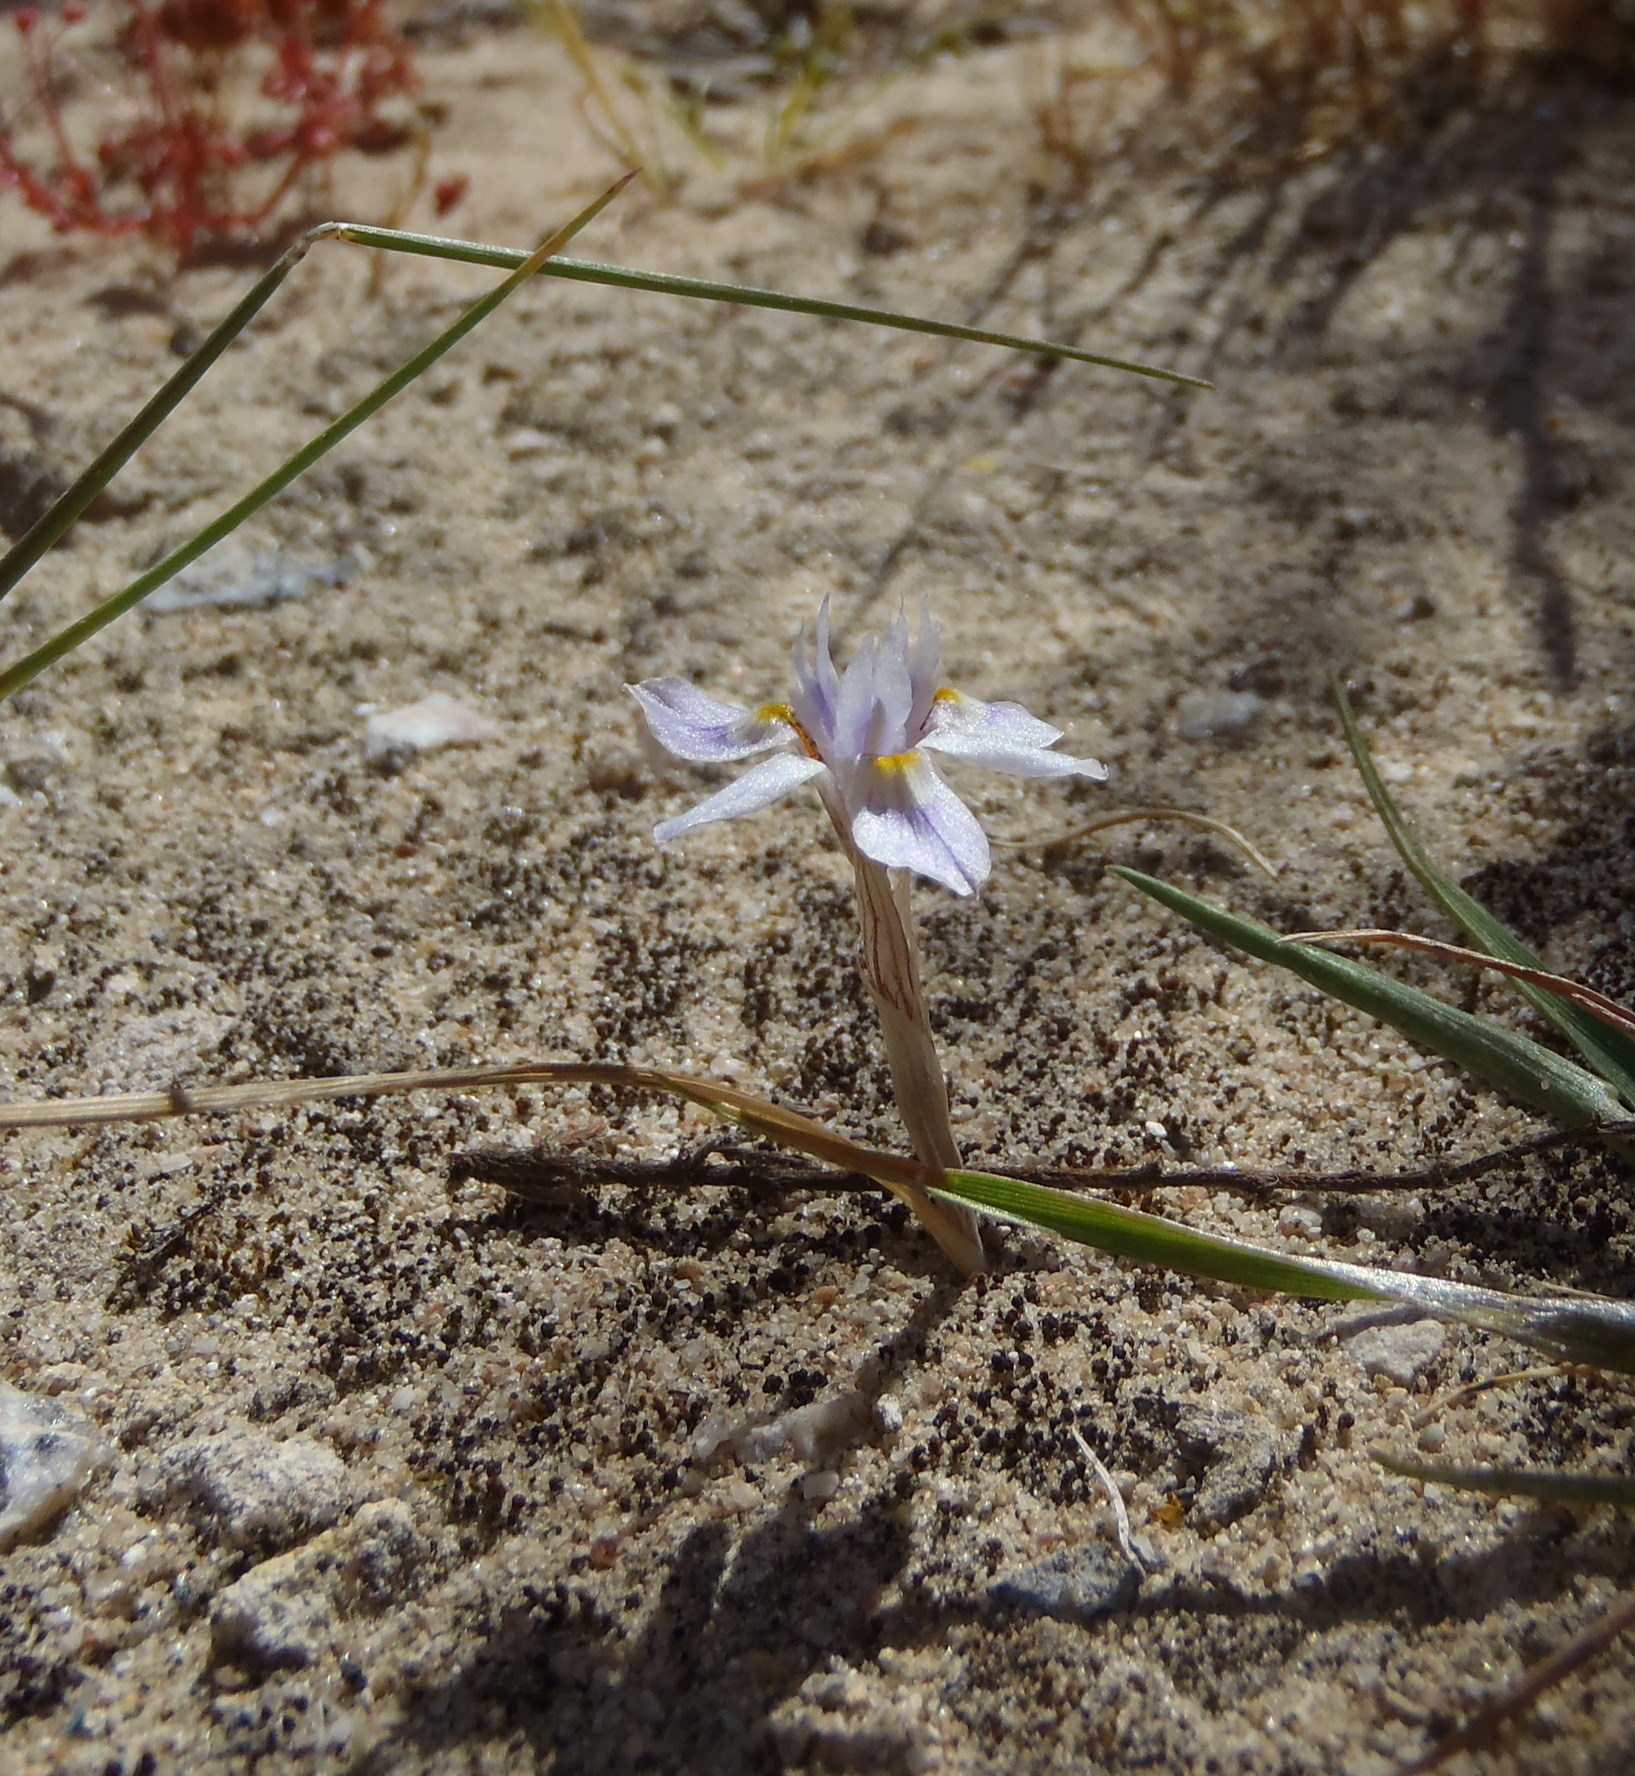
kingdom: Plantae
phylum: Tracheophyta
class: Liliopsida
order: Asparagales
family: Iridaceae
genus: Moraea
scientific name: Moraea setifolia
